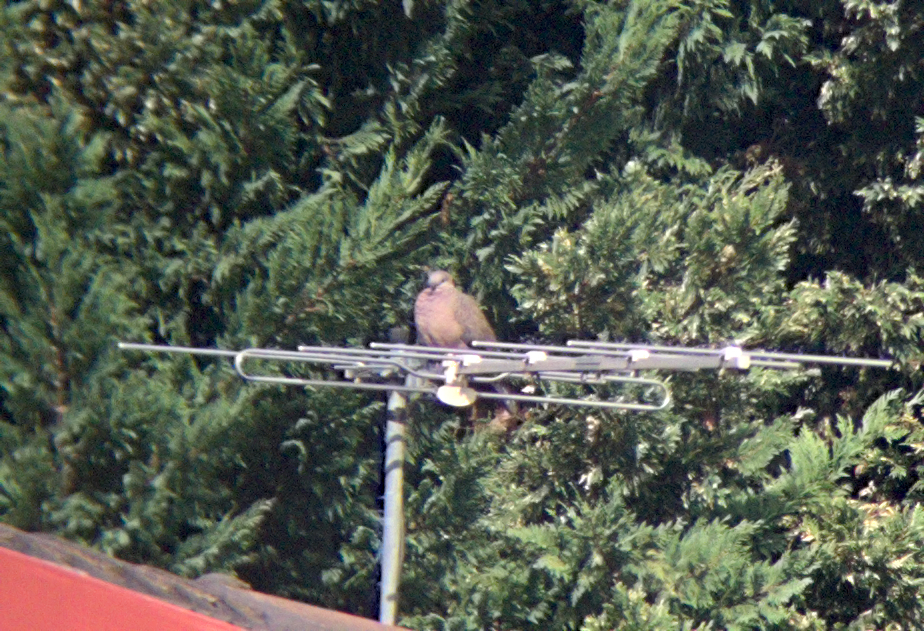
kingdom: Animalia
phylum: Chordata
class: Aves
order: Columbiformes
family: Columbidae
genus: Spilopelia
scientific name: Spilopelia chinensis
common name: Spotted dove
